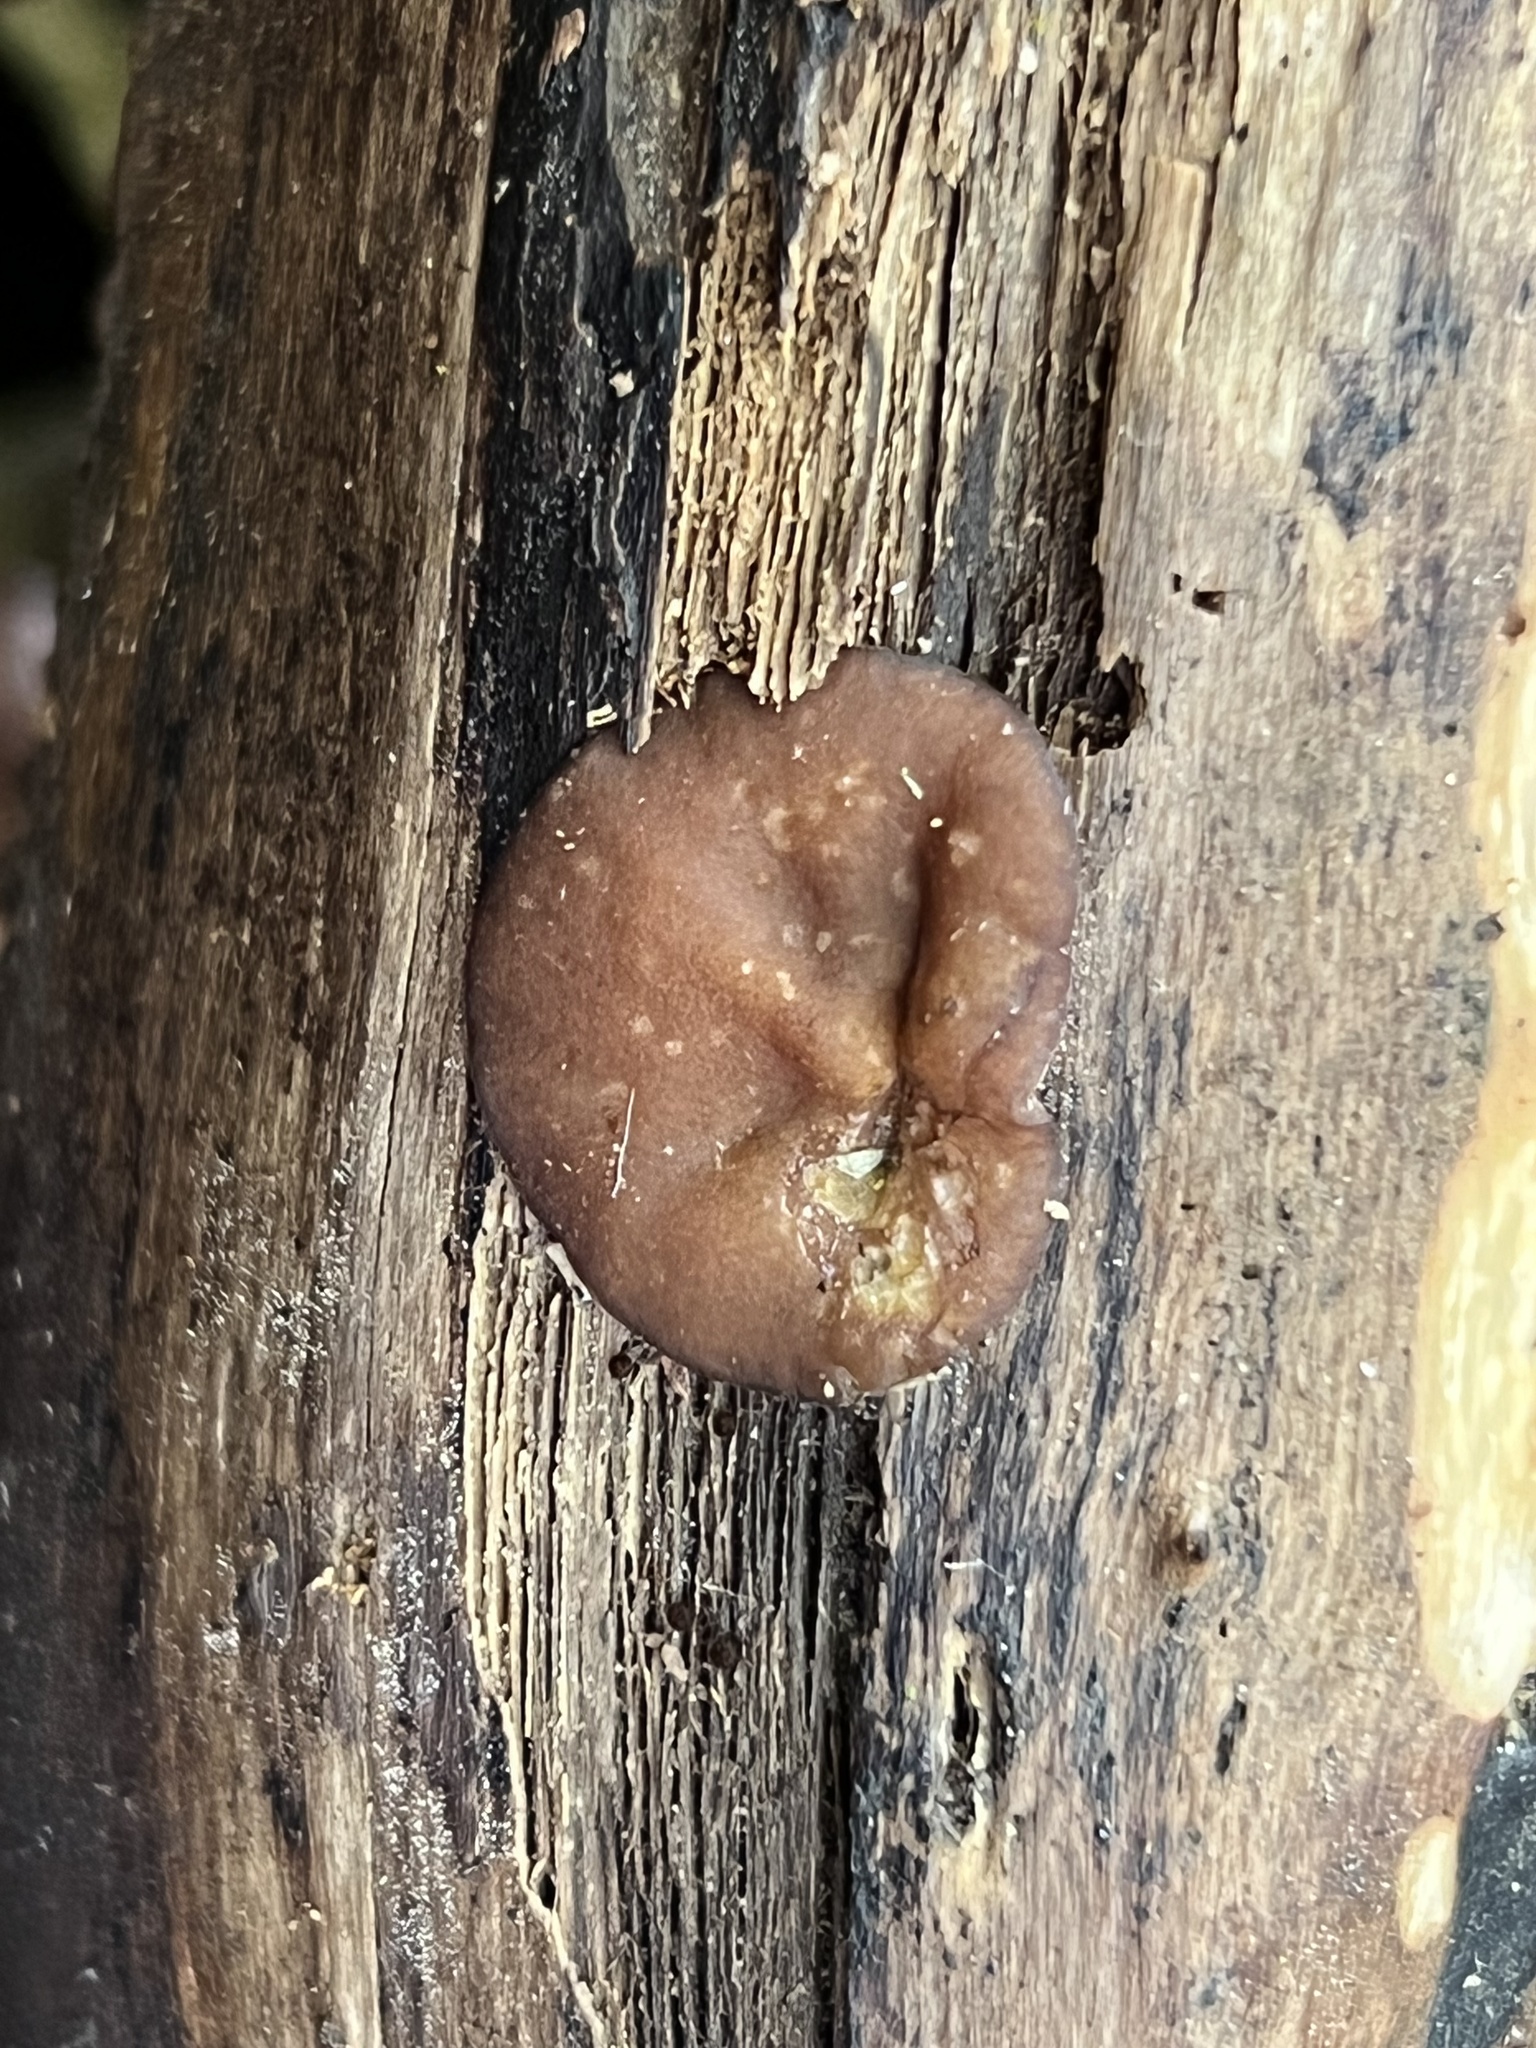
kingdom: Fungi
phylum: Ascomycota
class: Pezizomycetes
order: Pezizales
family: Pezizaceae
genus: Pachyella
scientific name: Pachyella clypeata
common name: Copper penny fungus
